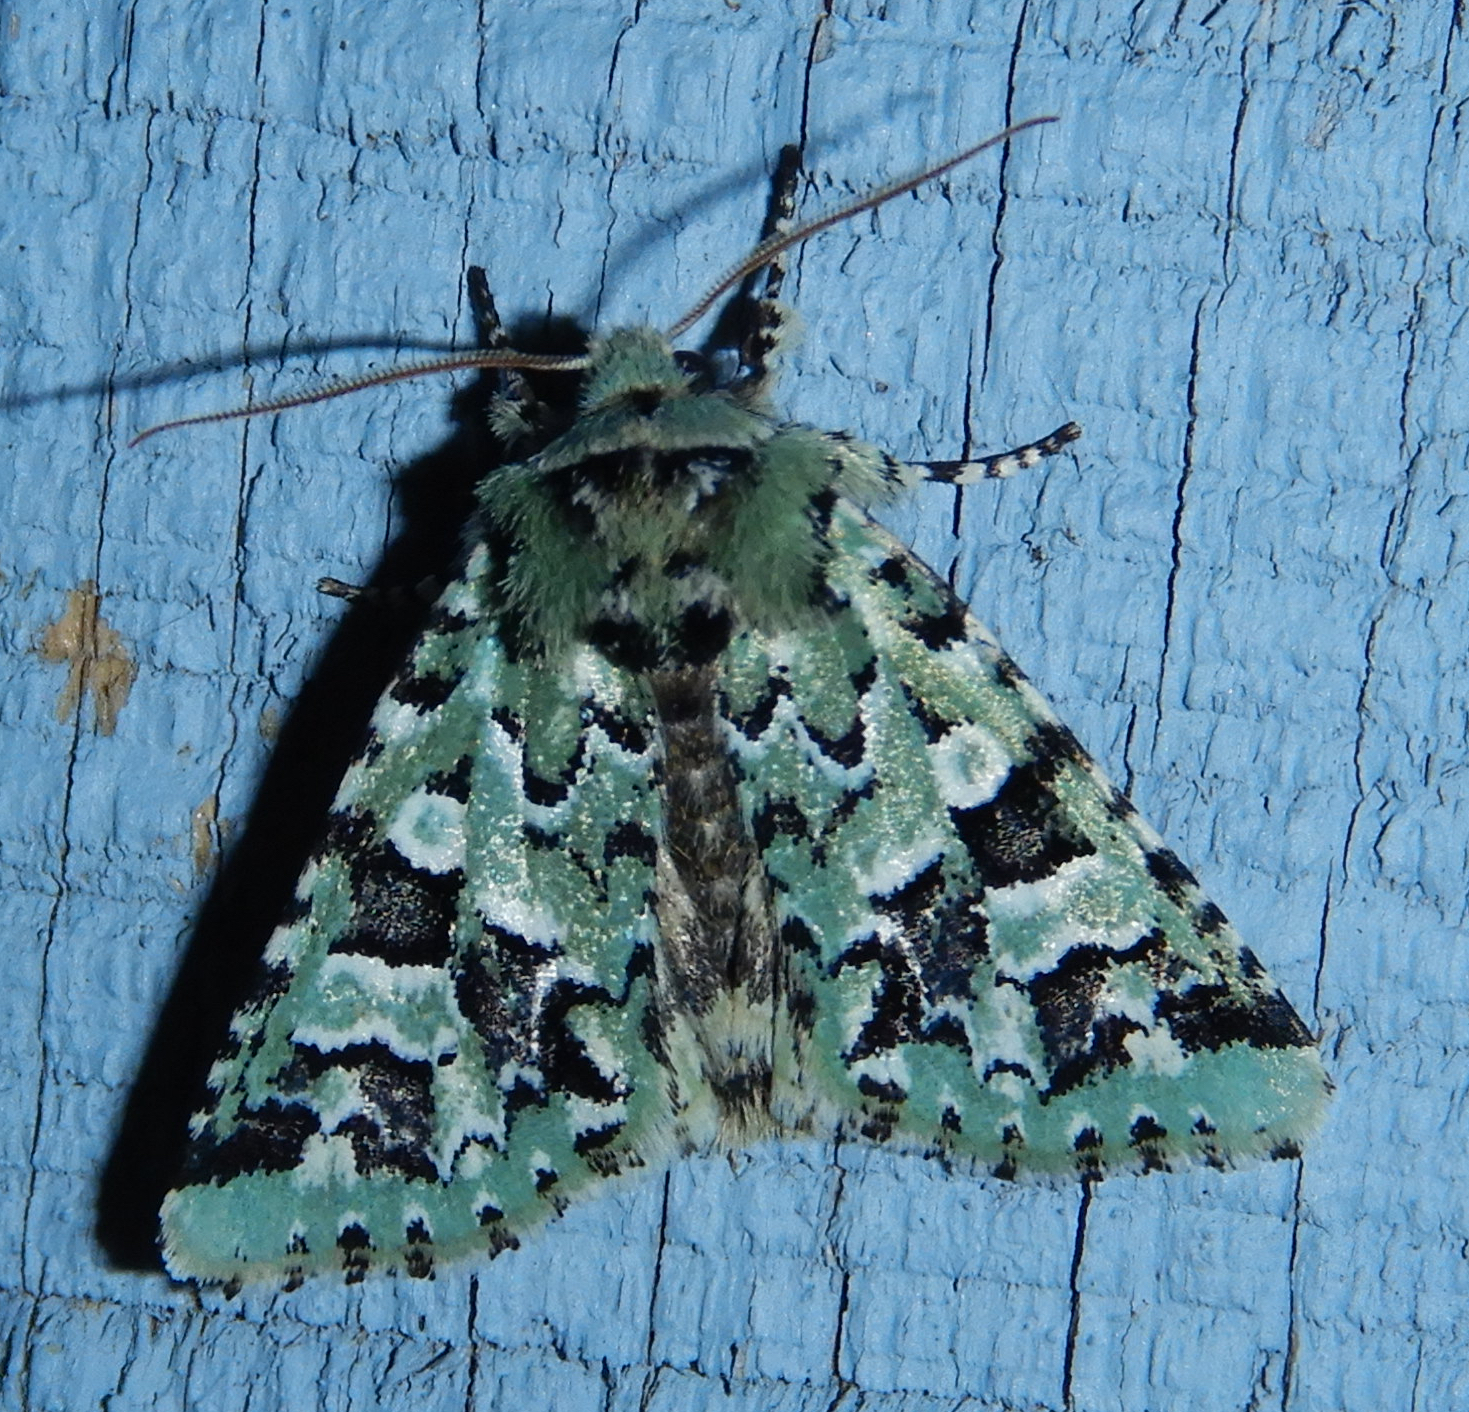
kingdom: Animalia
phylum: Arthropoda
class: Insecta
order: Lepidoptera
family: Noctuidae
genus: Feralia
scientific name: Feralia comstocki
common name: Comstock's sallow
